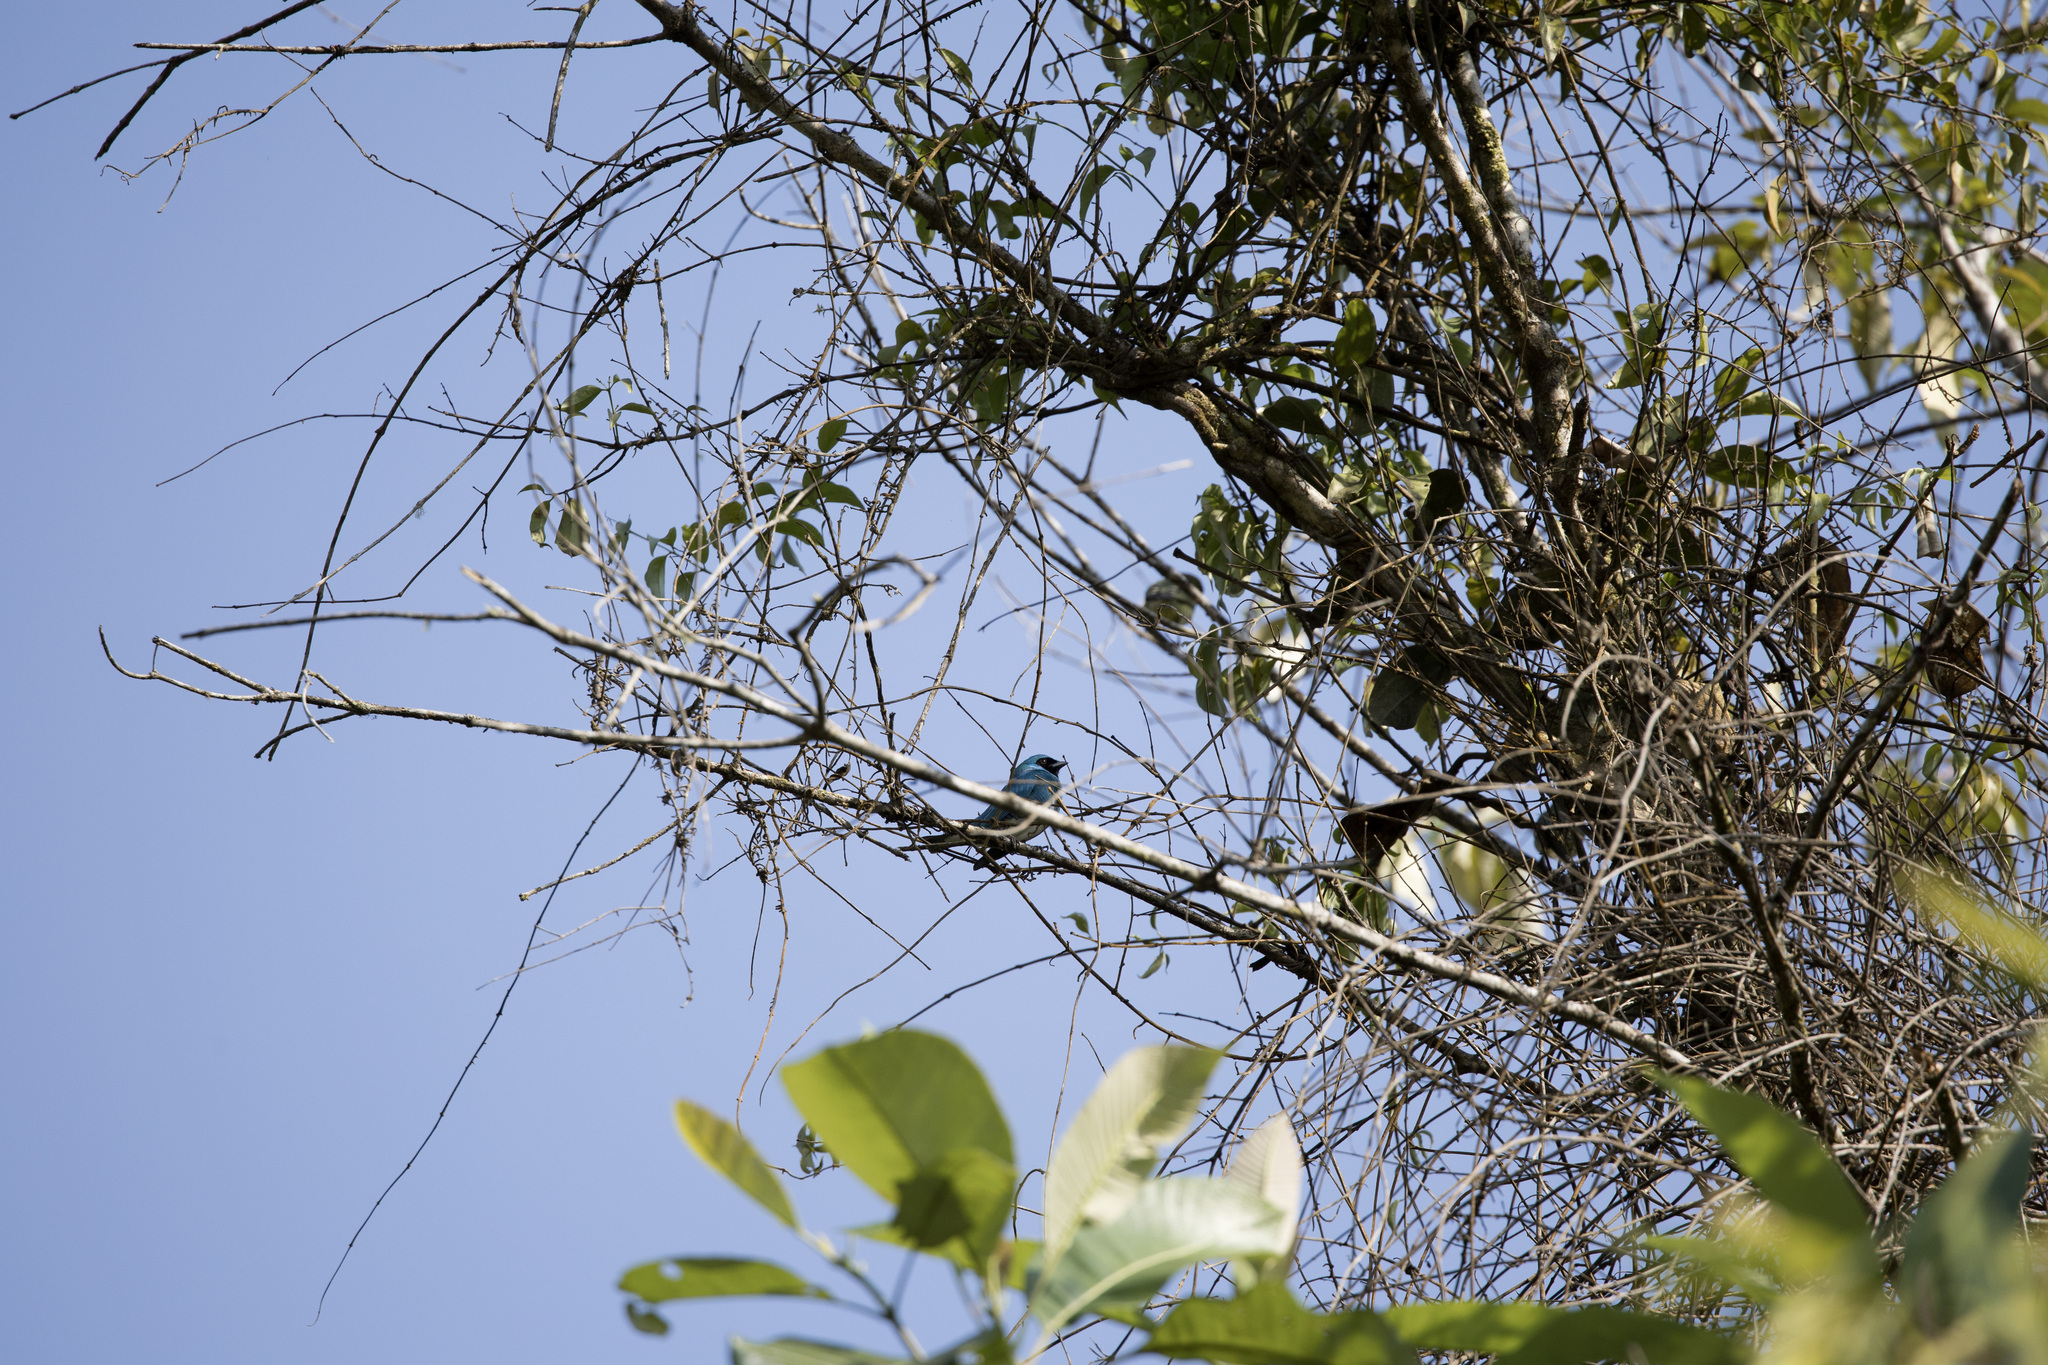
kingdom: Animalia
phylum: Chordata
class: Aves
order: Passeriformes
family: Thraupidae
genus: Tersina
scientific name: Tersina viridis
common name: Swallow tanager
